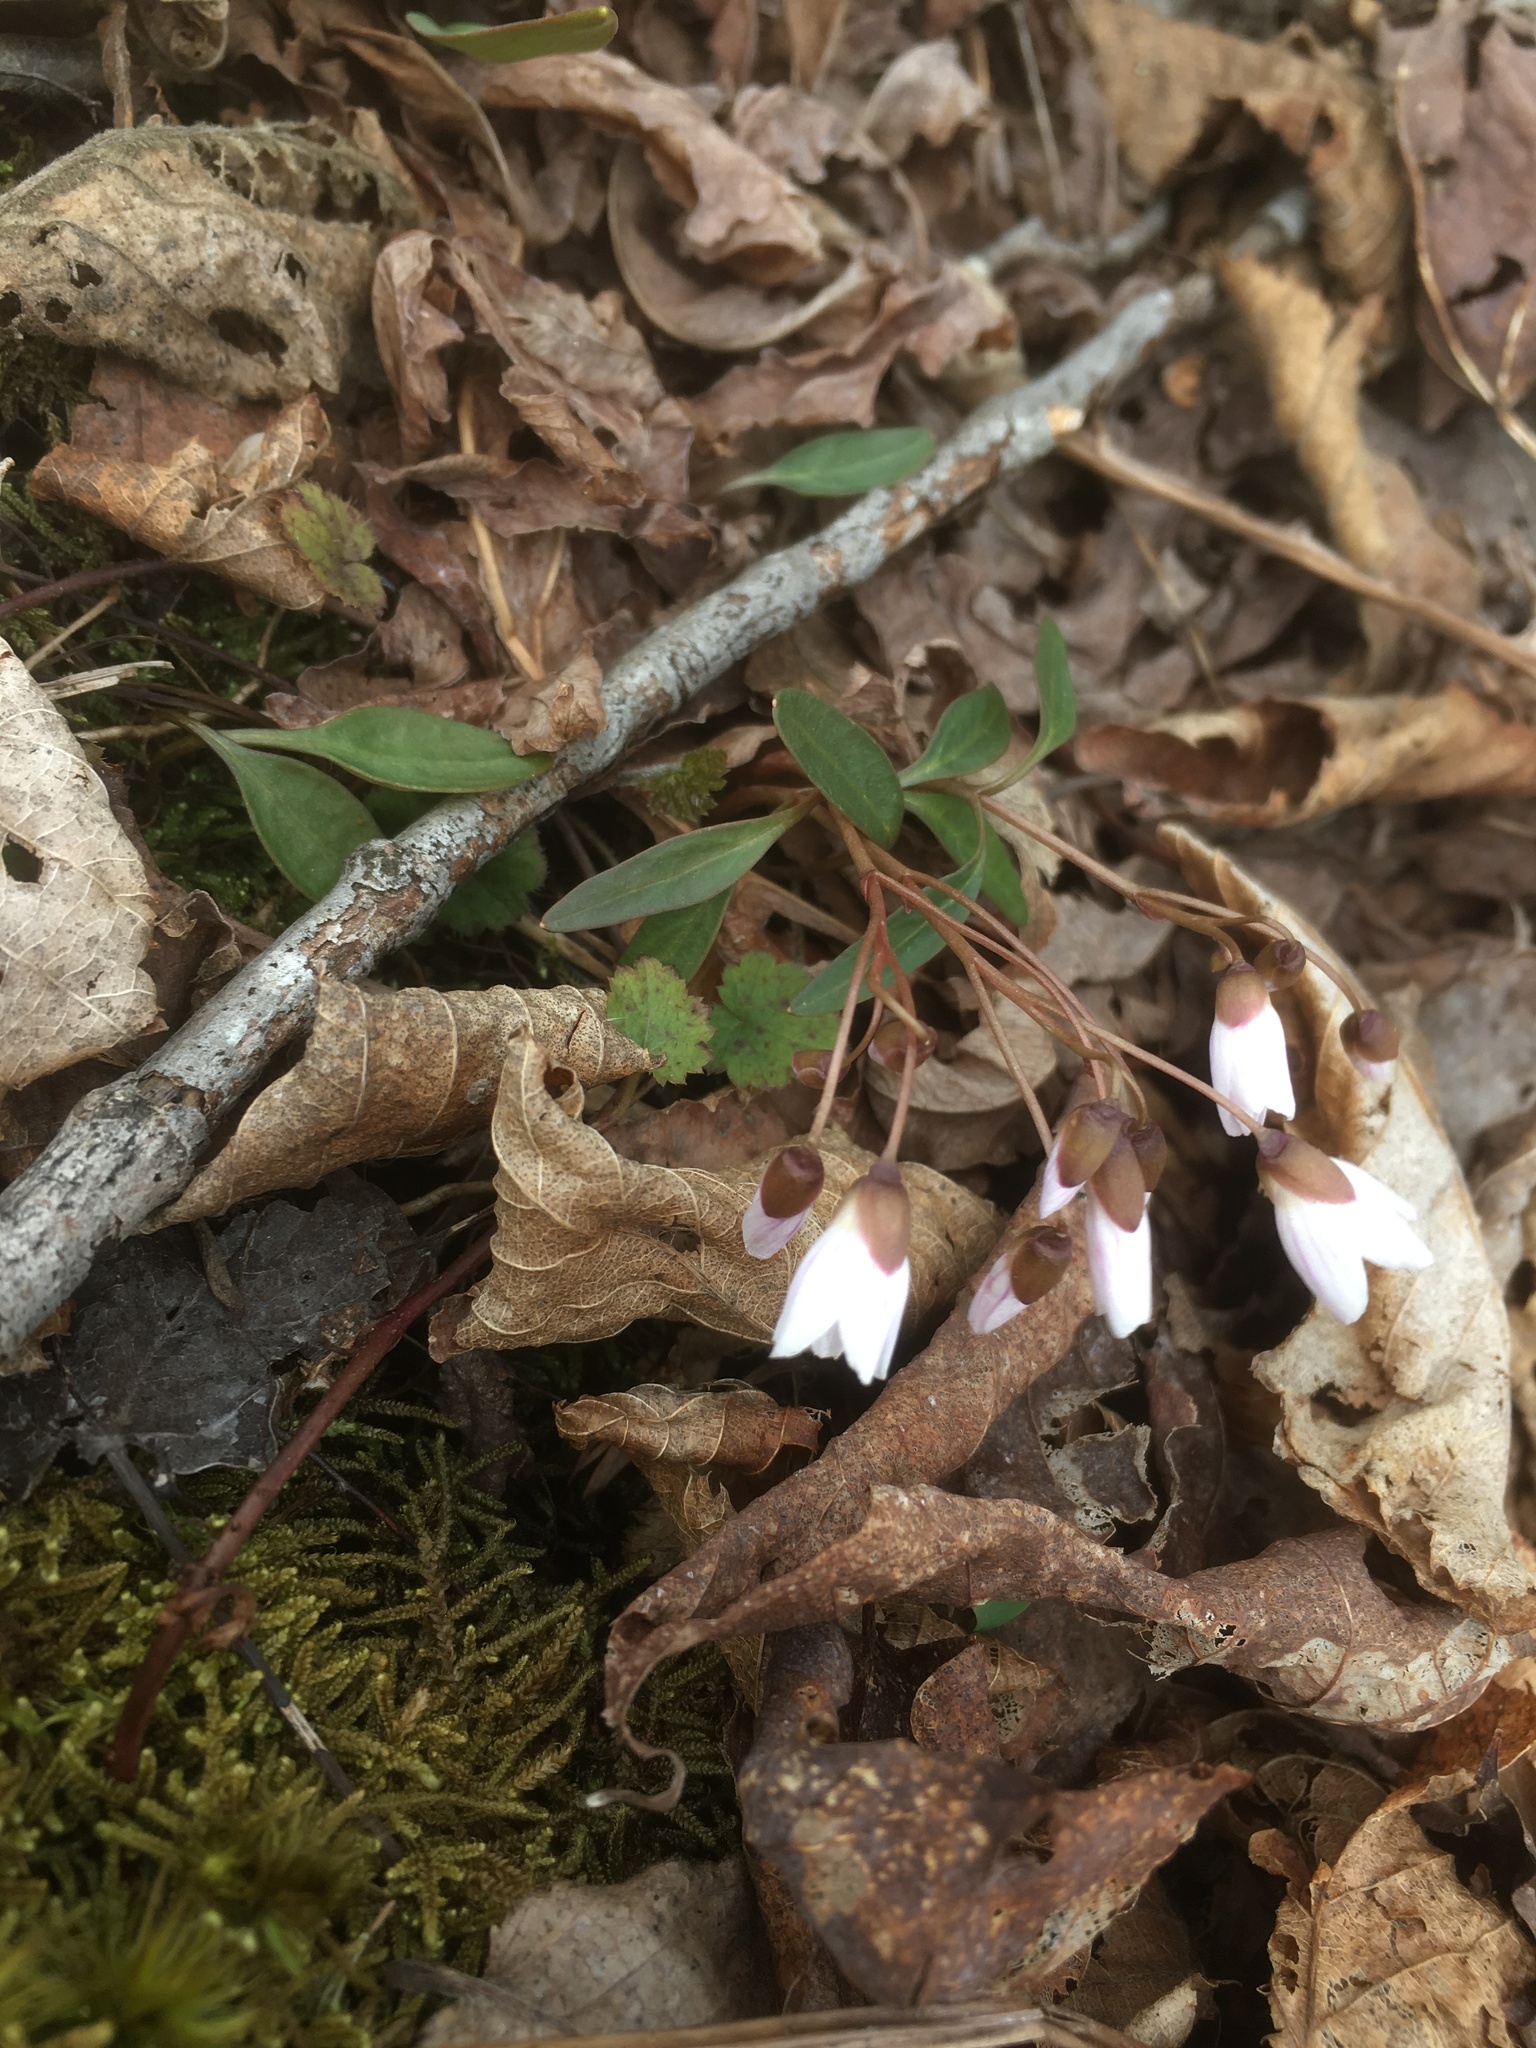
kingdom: Plantae
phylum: Tracheophyta
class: Magnoliopsida
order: Caryophyllales
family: Montiaceae
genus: Claytonia
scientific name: Claytonia caroliniana
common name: Carolina spring beauty
